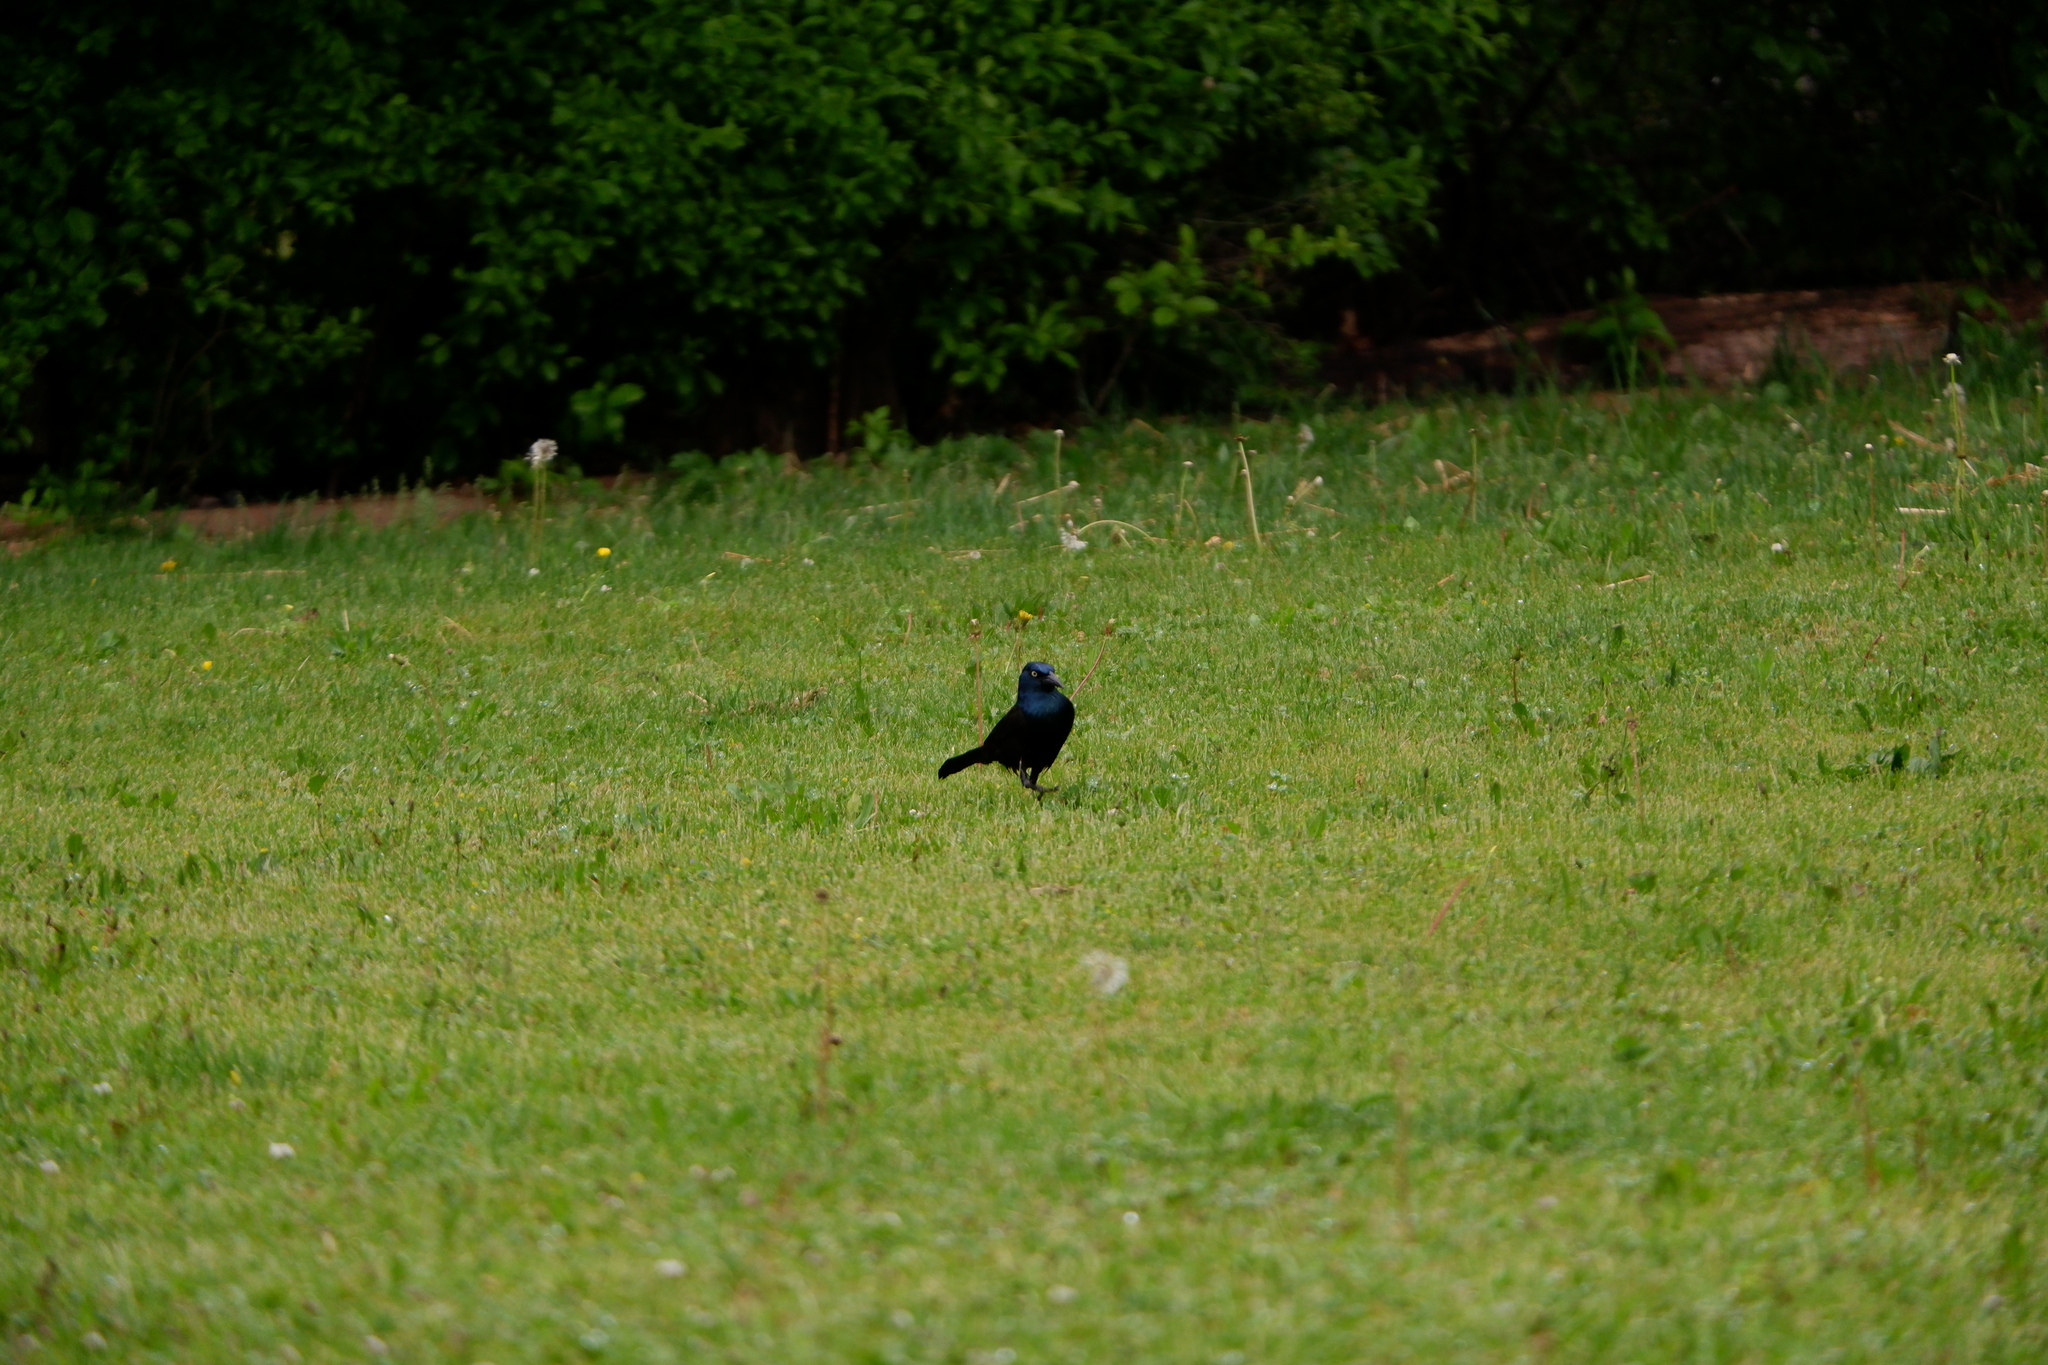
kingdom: Animalia
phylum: Chordata
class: Aves
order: Passeriformes
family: Icteridae
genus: Quiscalus
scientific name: Quiscalus quiscula
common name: Common grackle
